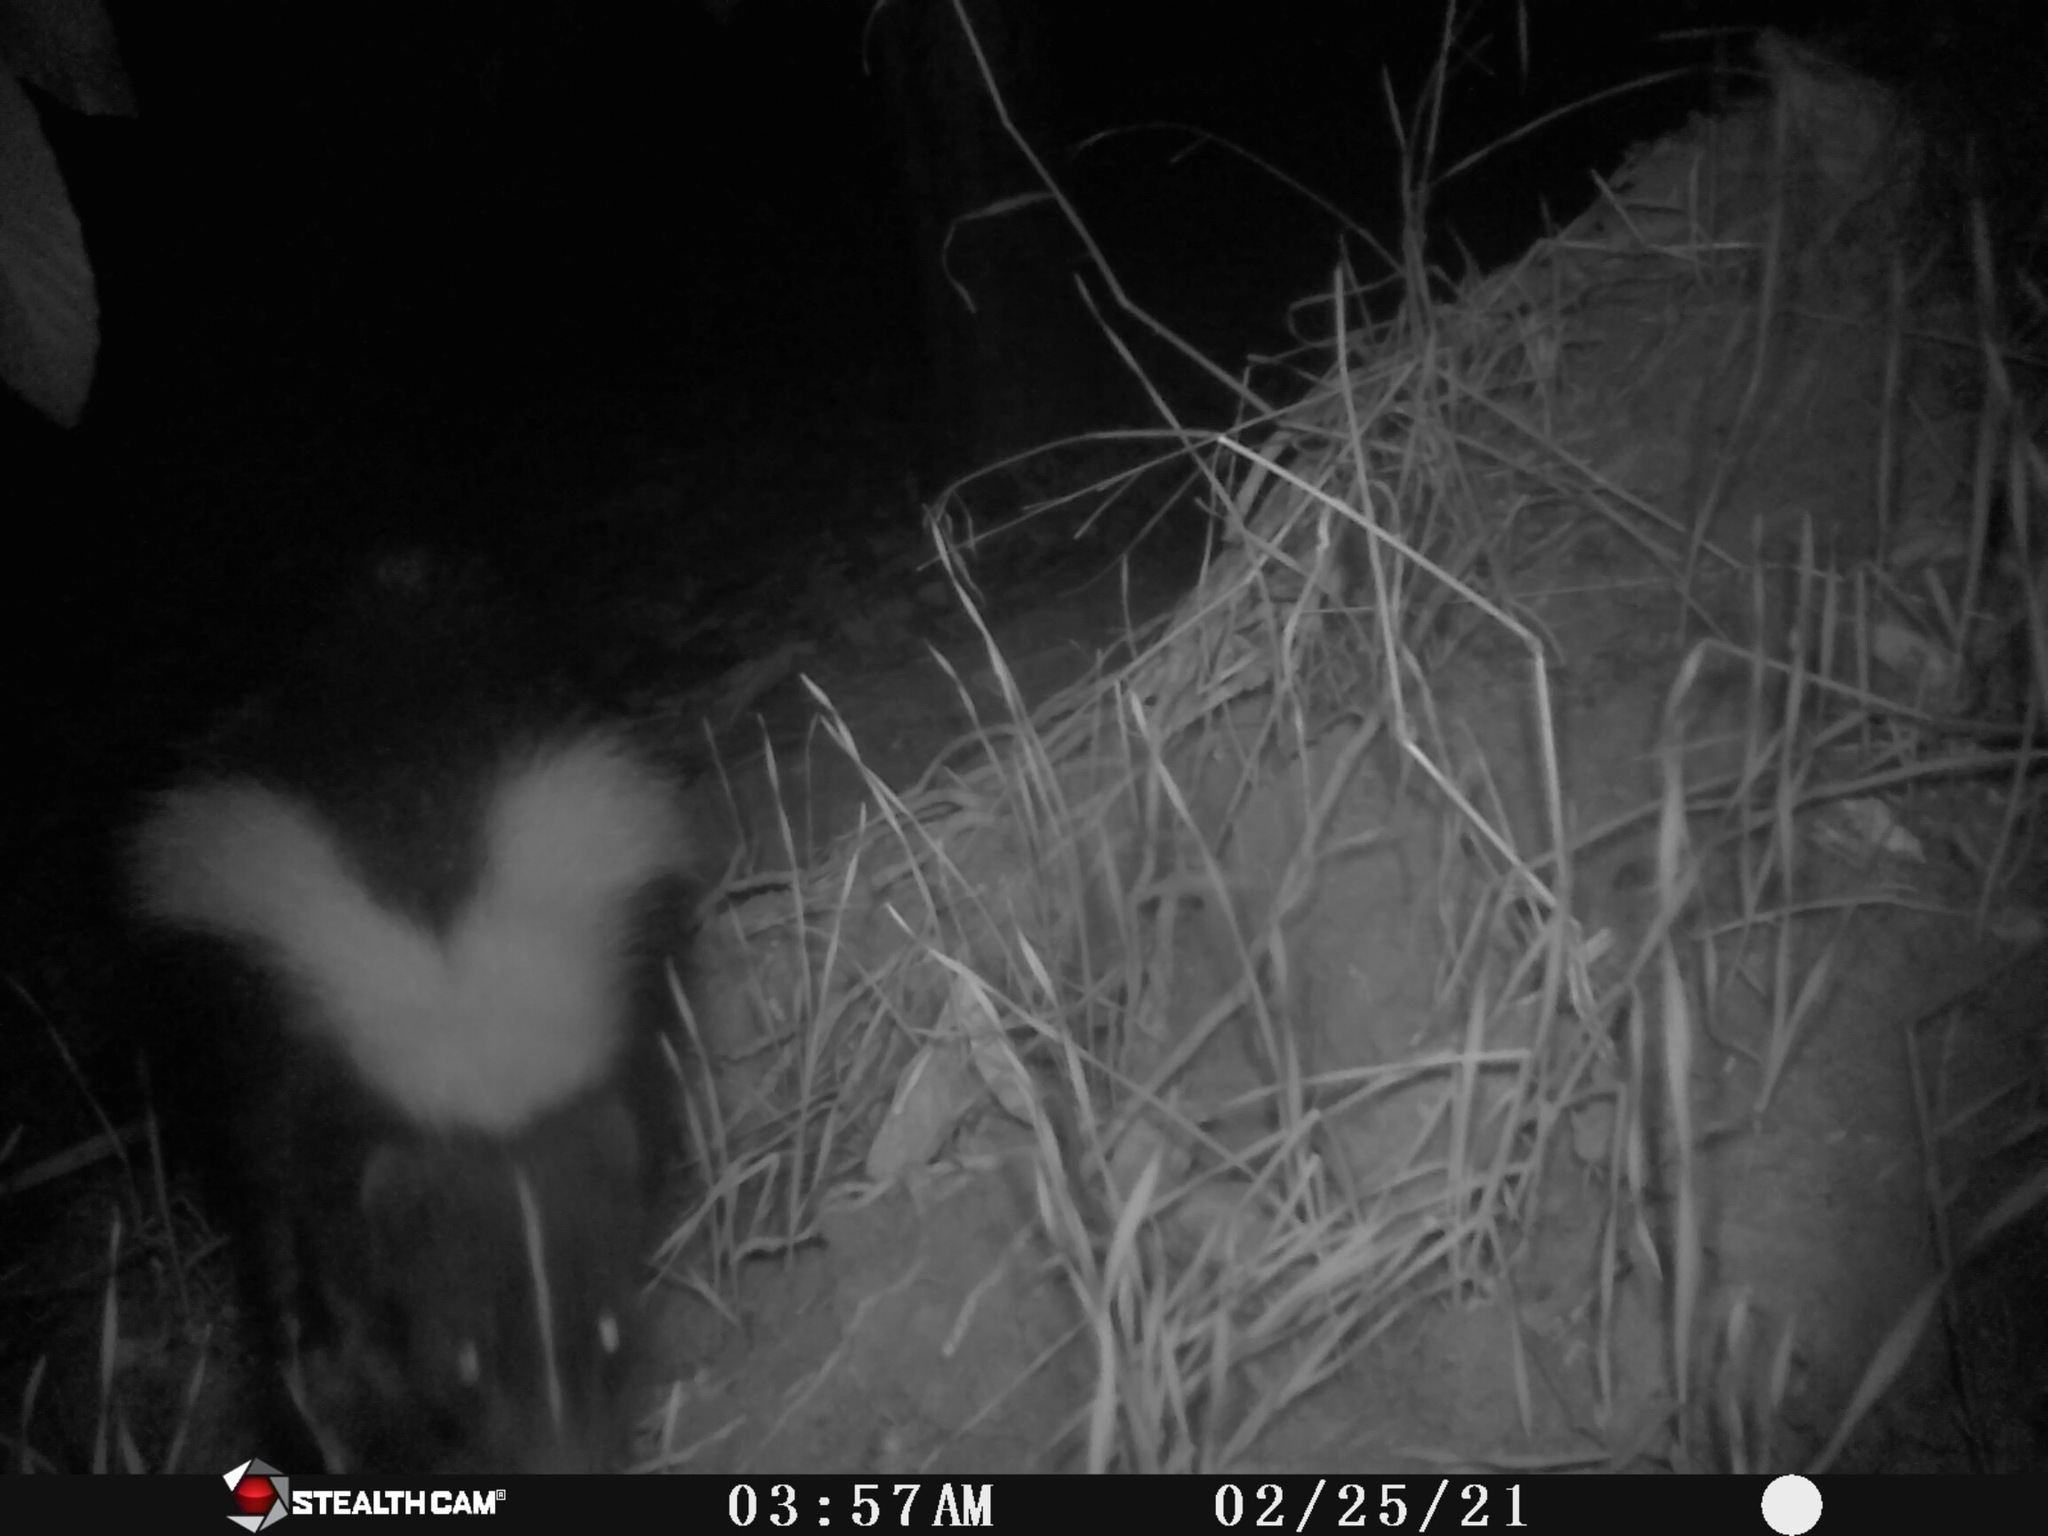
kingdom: Animalia
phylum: Chordata
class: Mammalia
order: Carnivora
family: Mephitidae
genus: Mephitis
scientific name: Mephitis mephitis
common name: Striped skunk
